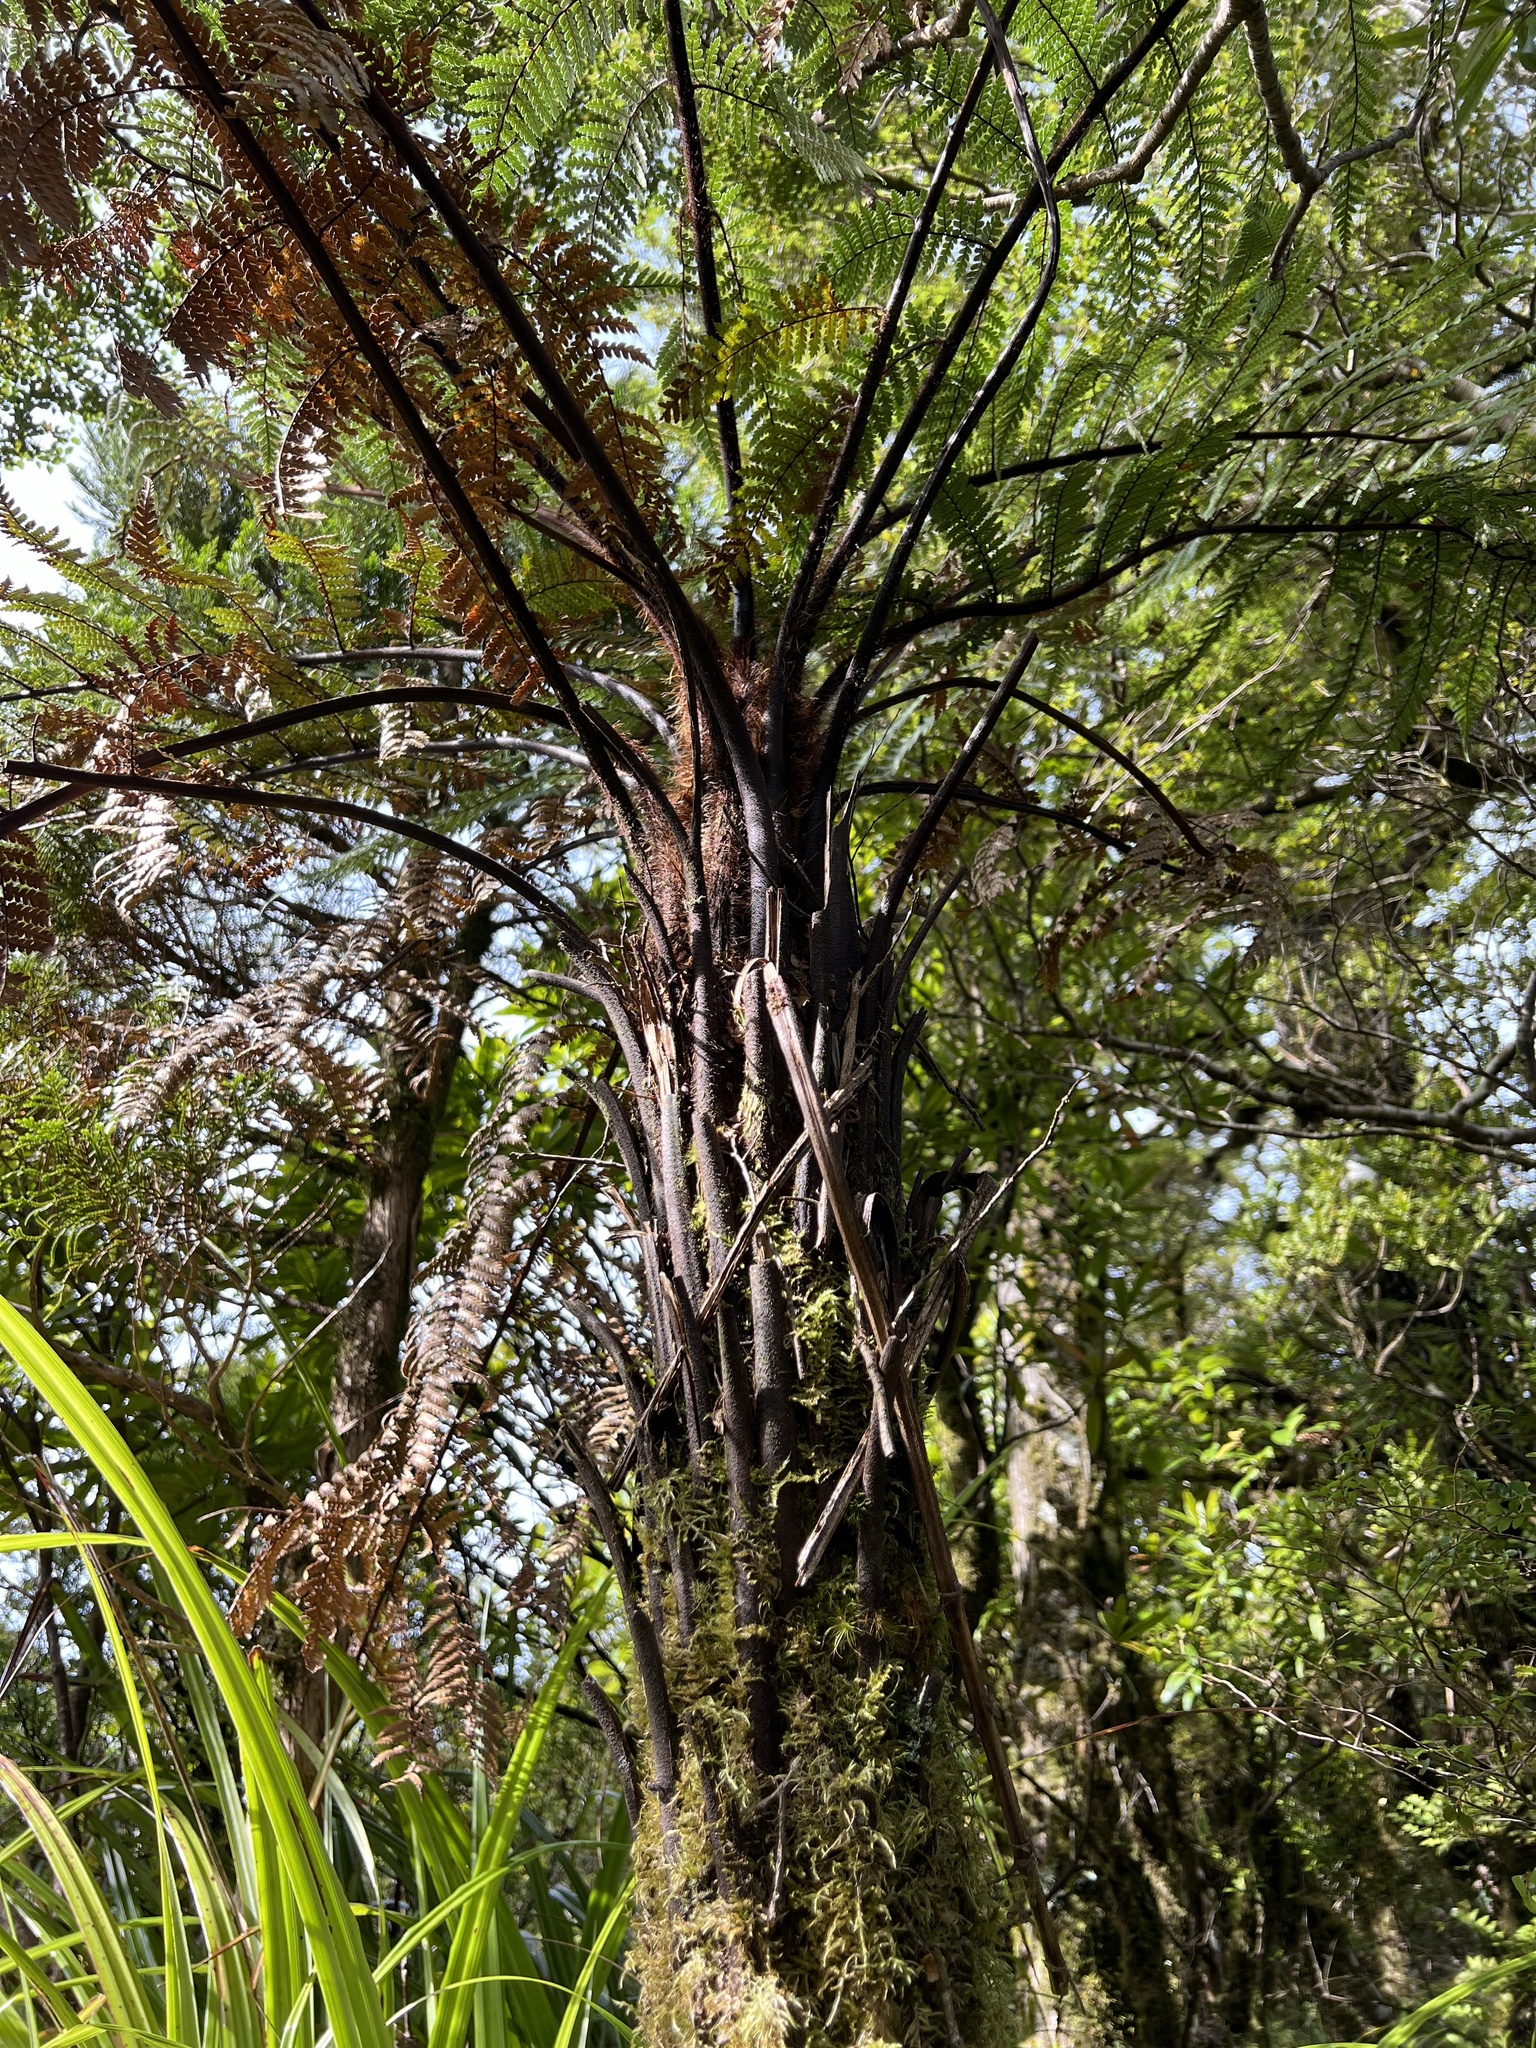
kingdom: Plantae
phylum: Tracheophyta
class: Polypodiopsida
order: Cyatheales
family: Dicksoniaceae
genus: Dicksonia
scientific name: Dicksonia squarrosa
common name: Hard treefern
